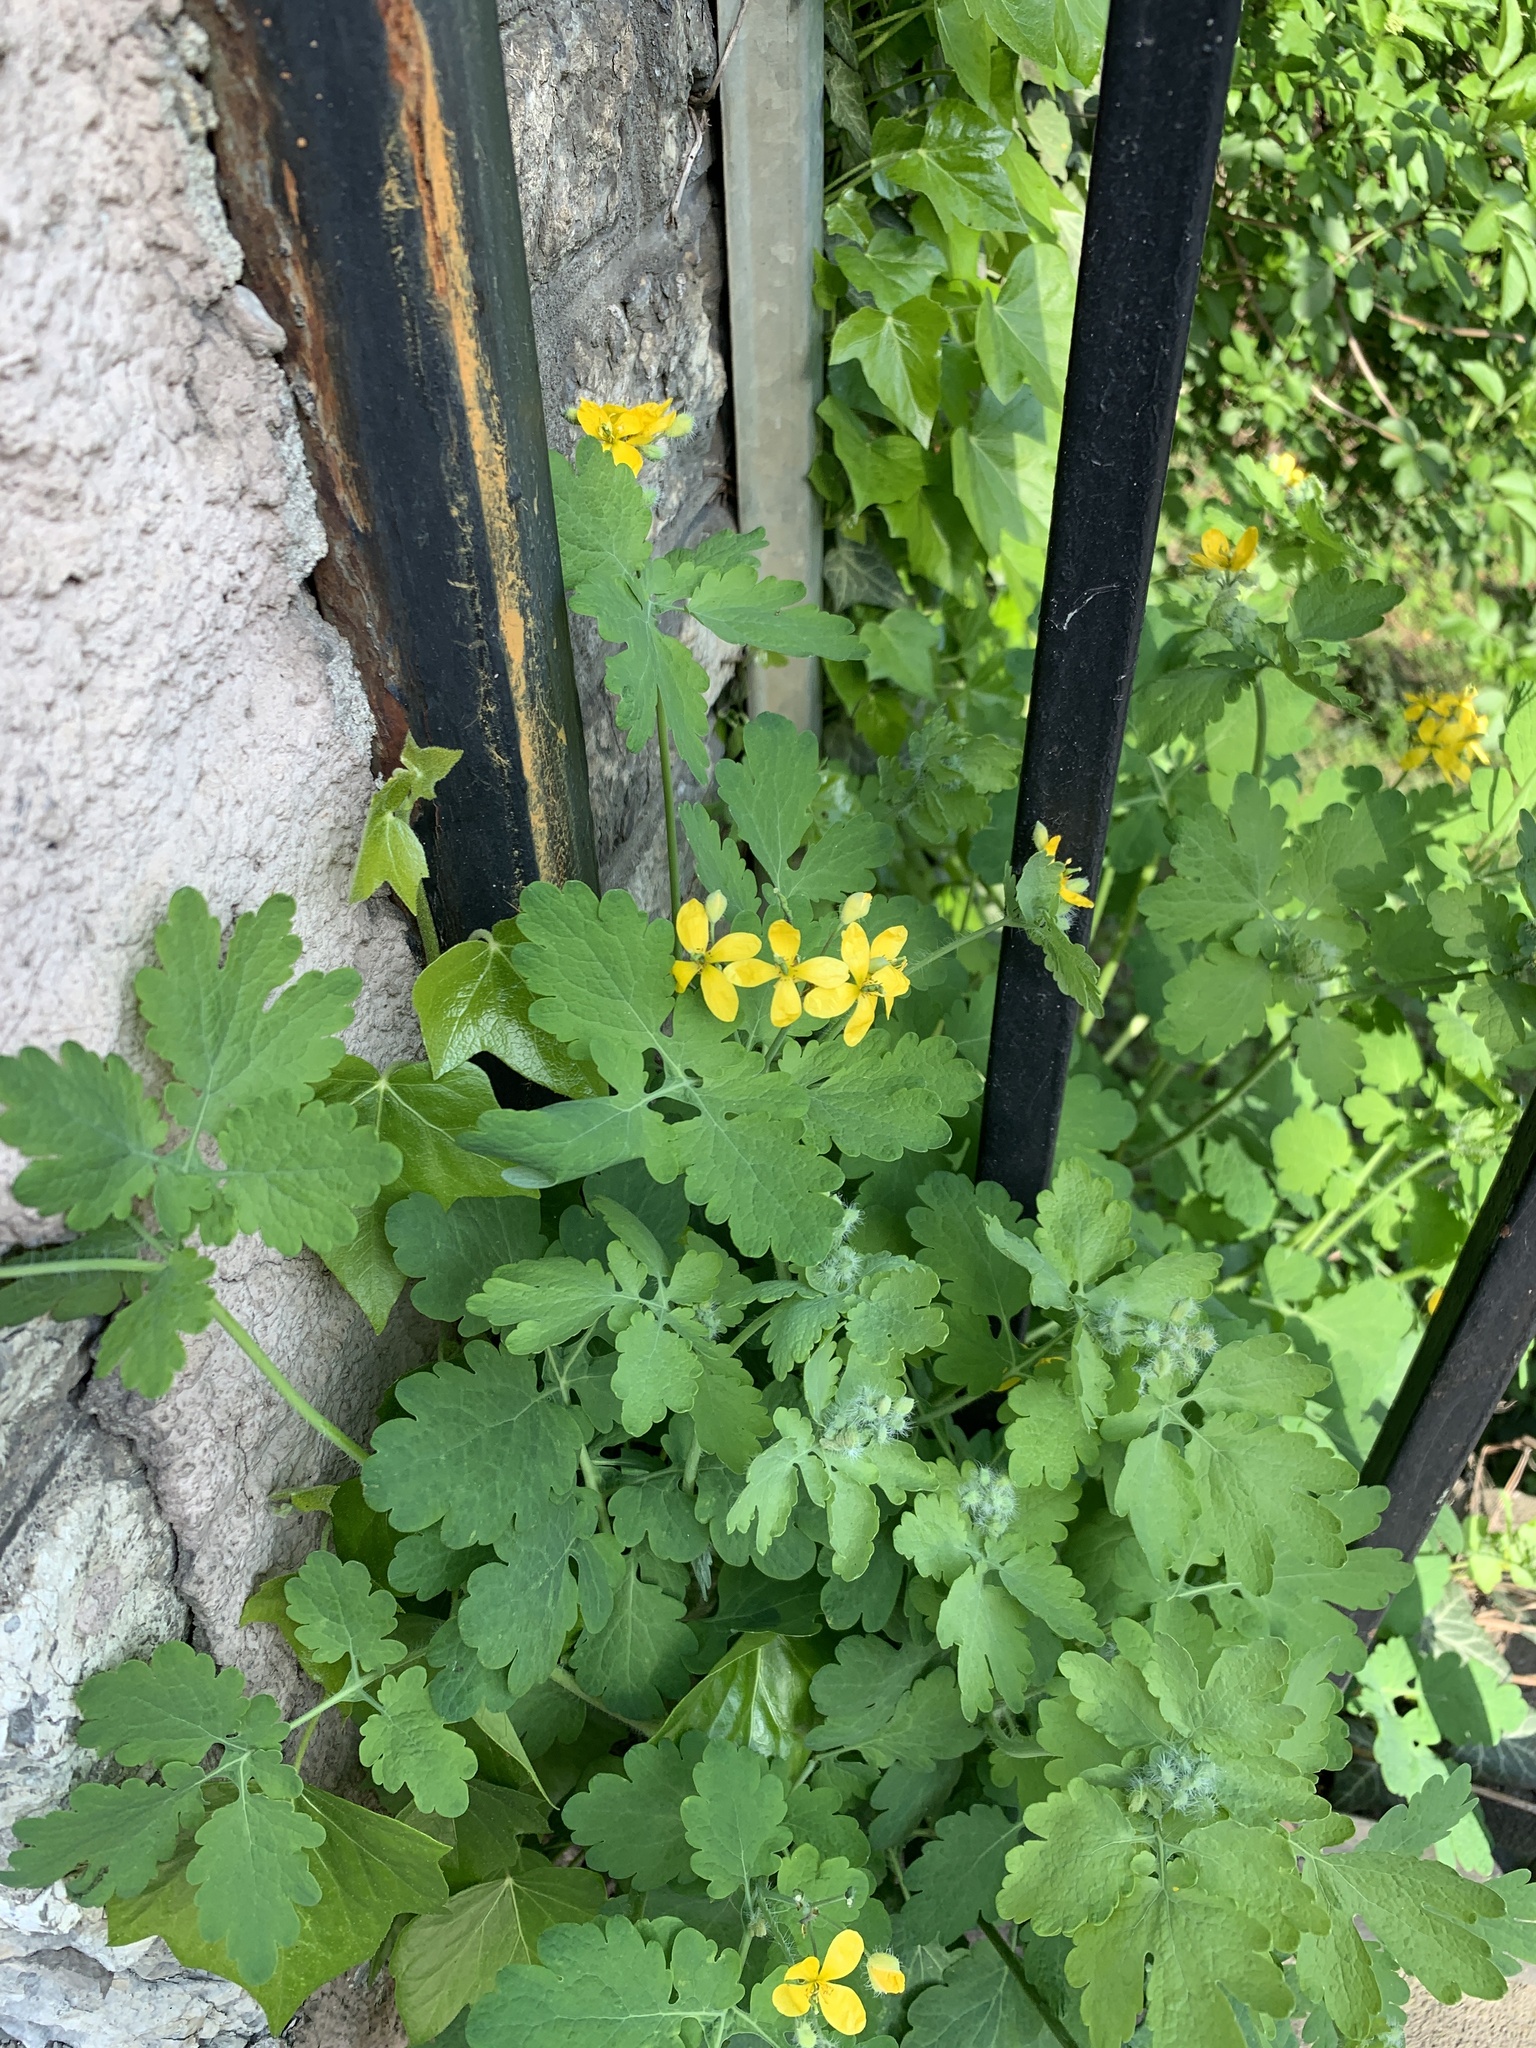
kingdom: Plantae
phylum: Tracheophyta
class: Magnoliopsida
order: Ranunculales
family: Papaveraceae
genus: Chelidonium
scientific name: Chelidonium majus
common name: Greater celandine
